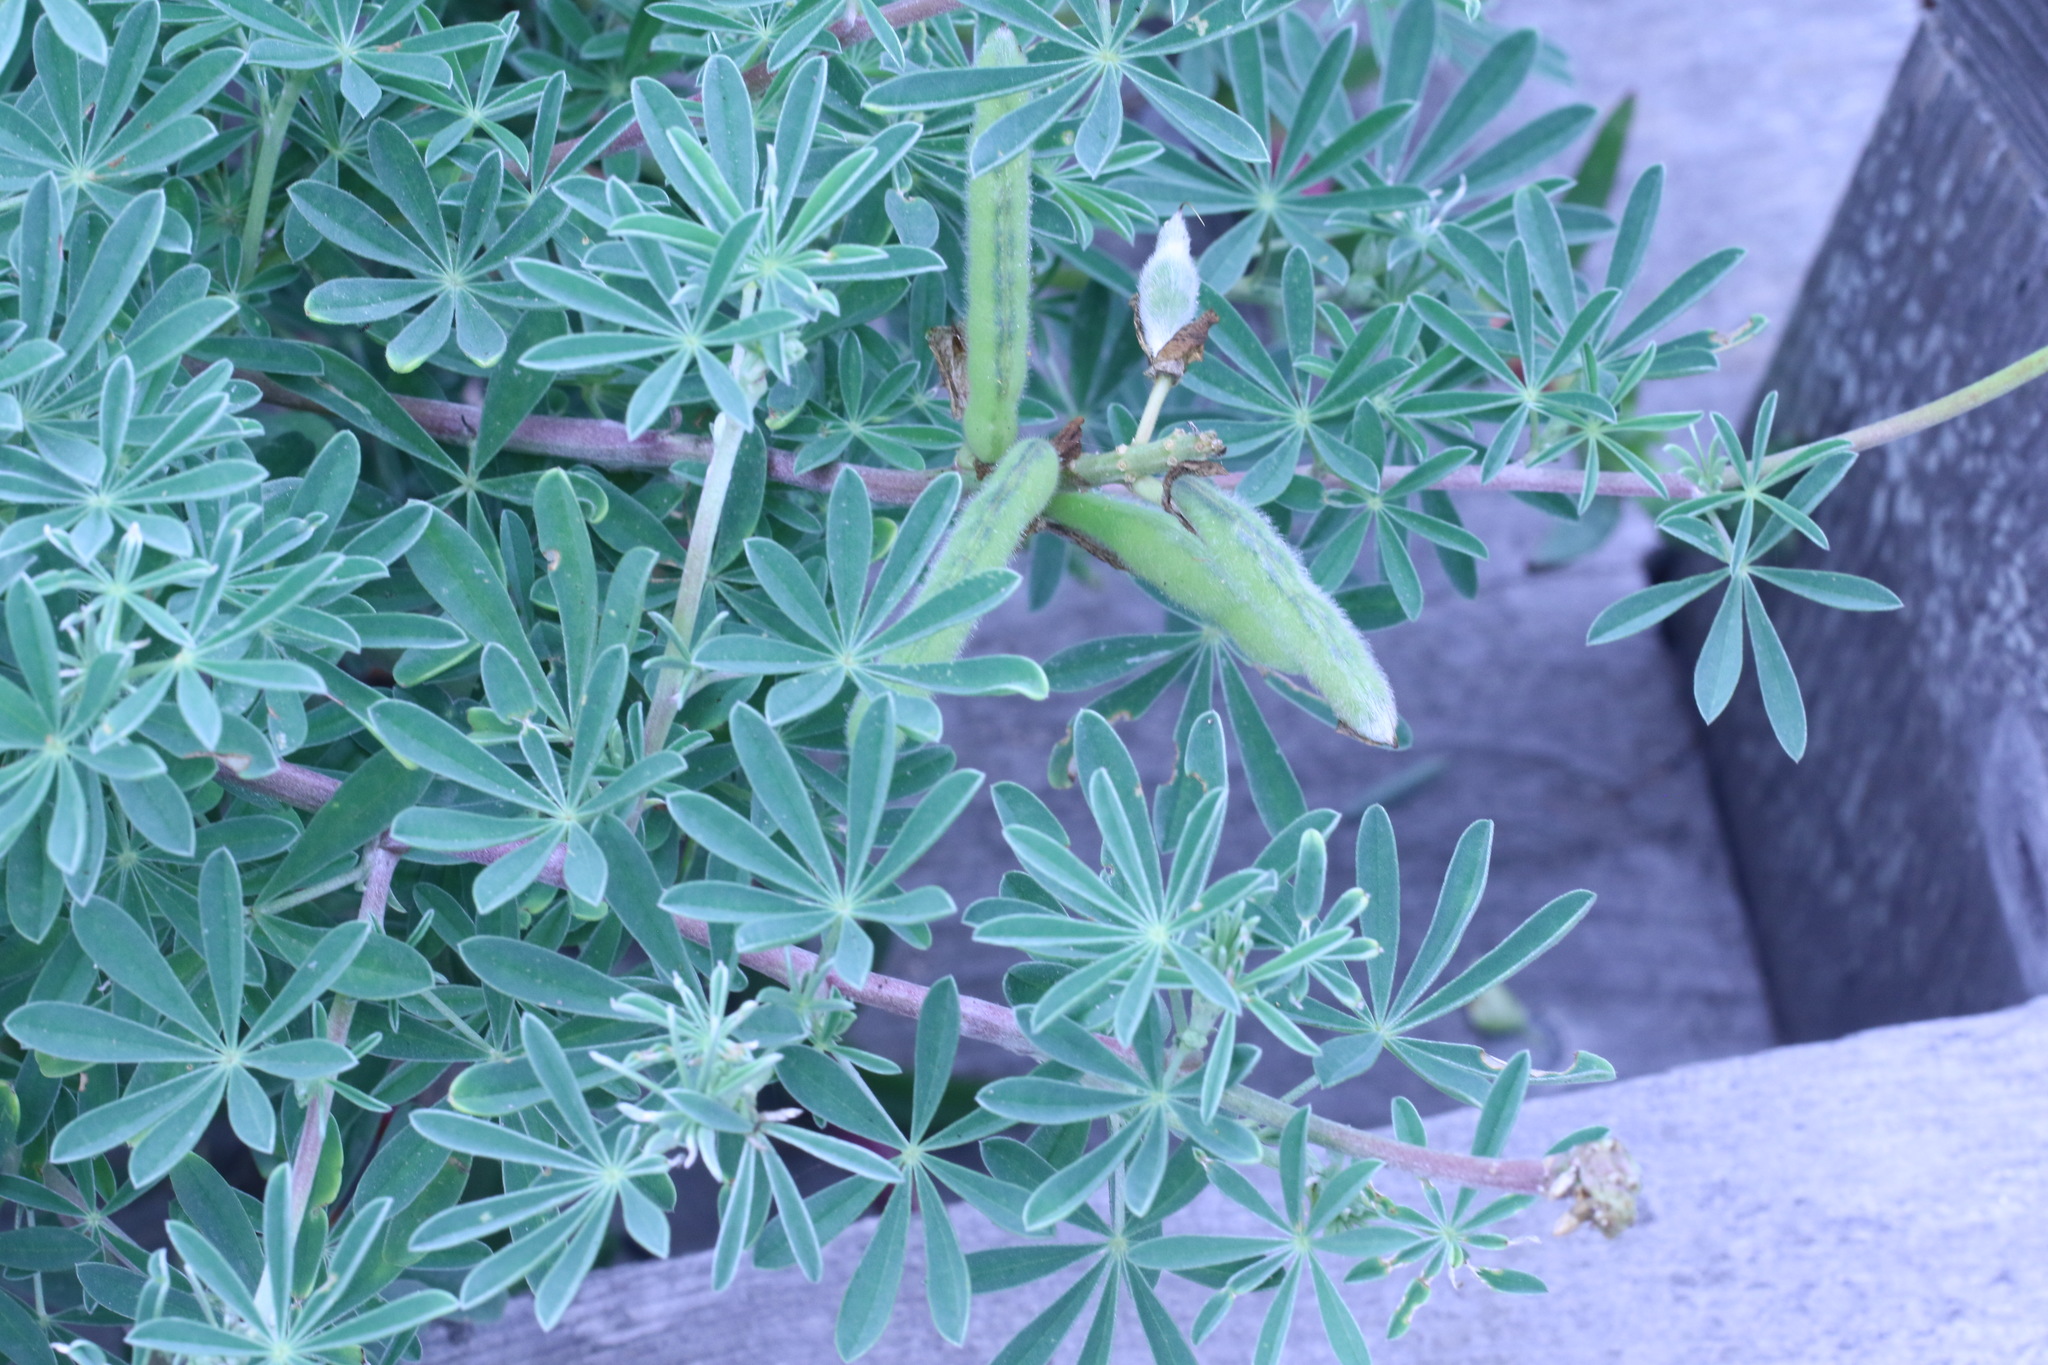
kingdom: Plantae
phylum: Tracheophyta
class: Magnoliopsida
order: Fabales
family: Fabaceae
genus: Lupinus
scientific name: Lupinus arboreus
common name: Yellow bush lupine
